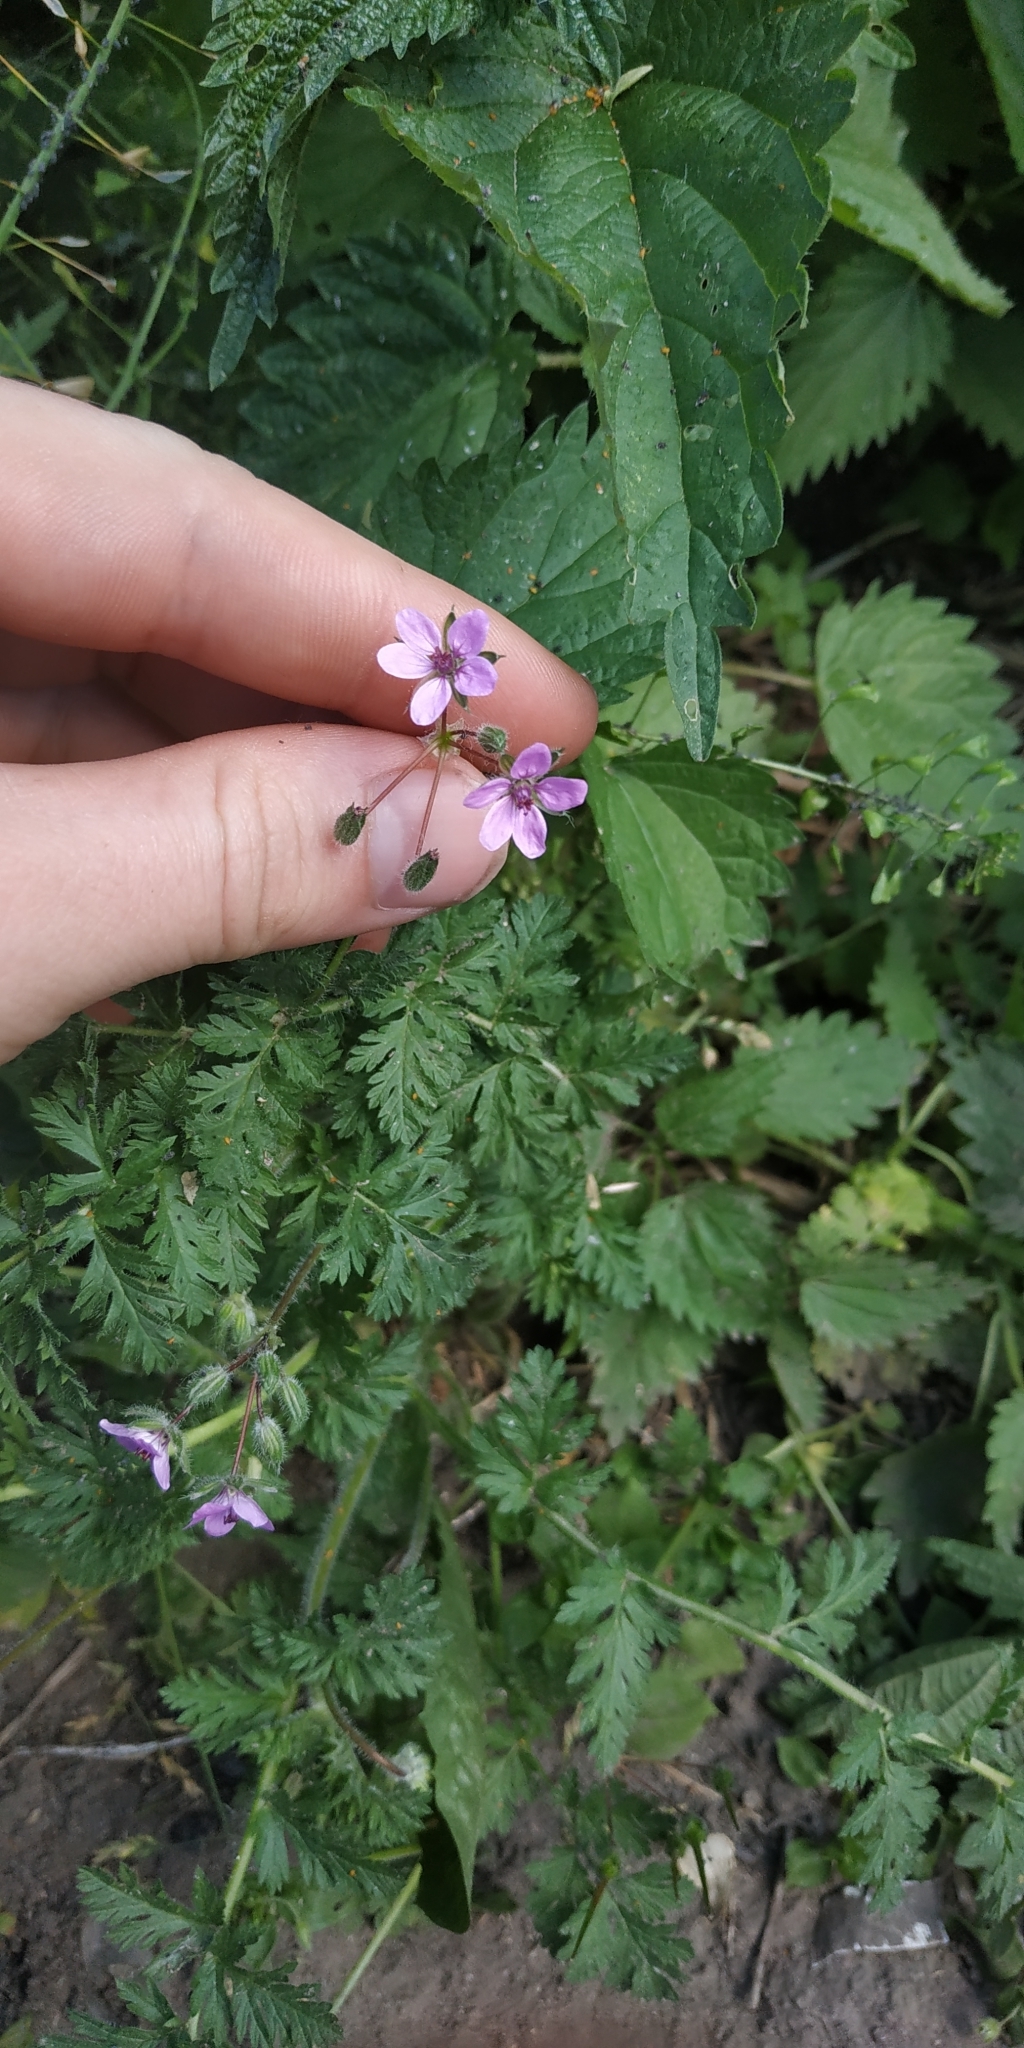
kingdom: Plantae
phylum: Tracheophyta
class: Magnoliopsida
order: Geraniales
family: Geraniaceae
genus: Erodium
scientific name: Erodium cicutarium
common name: Common stork's-bill
